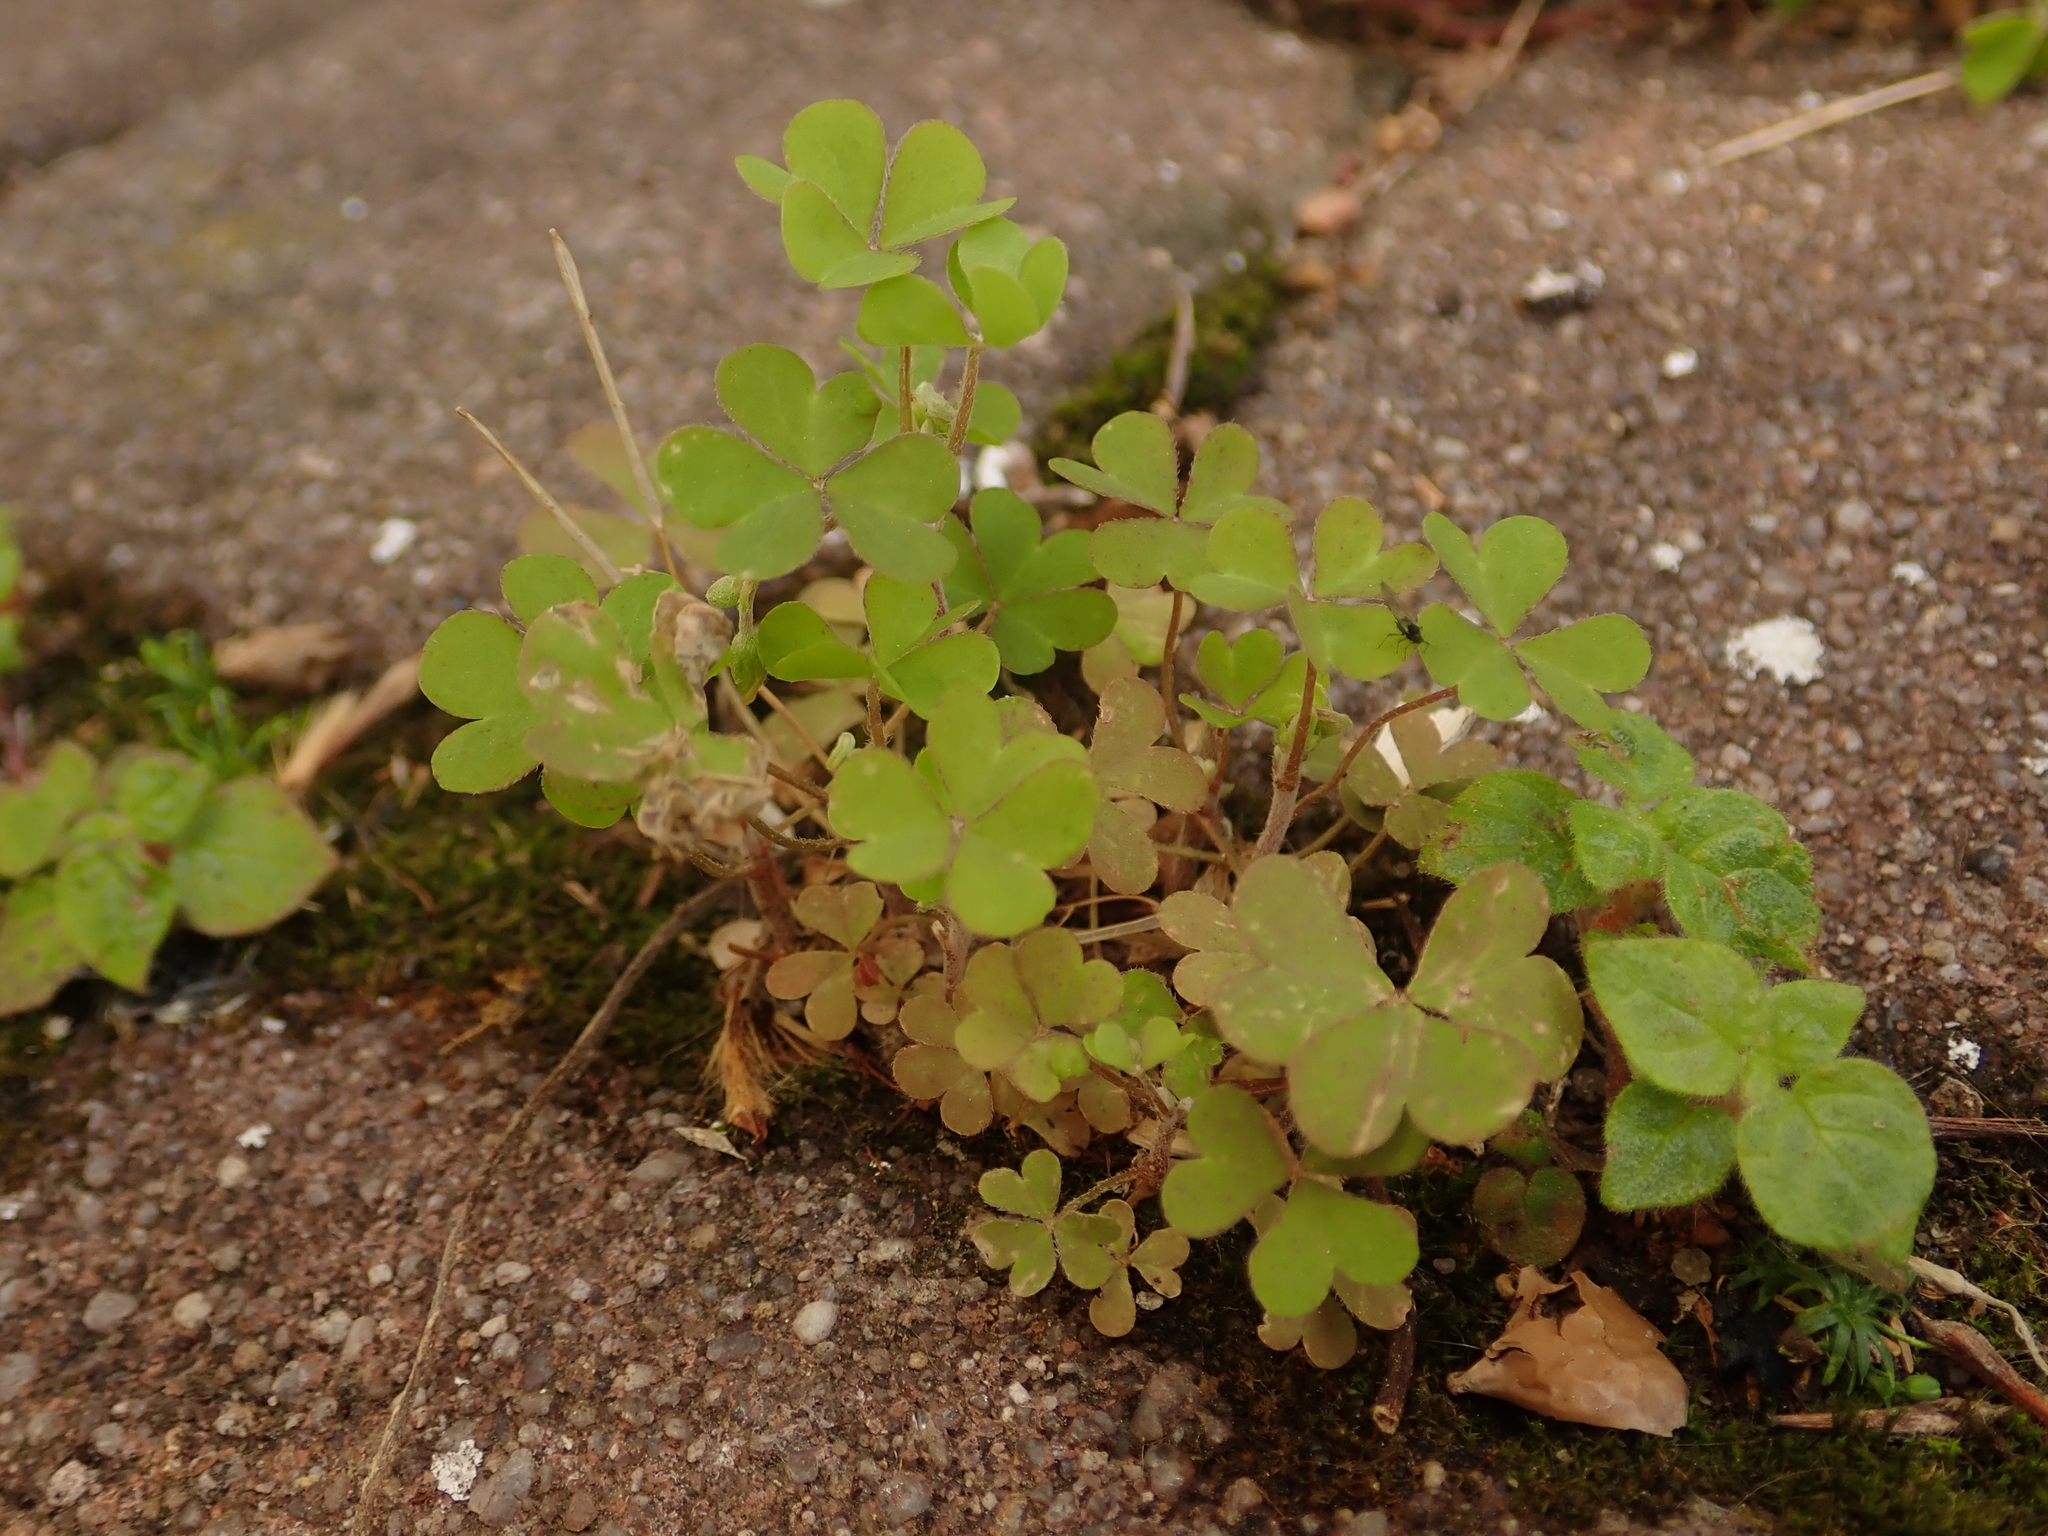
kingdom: Plantae
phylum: Tracheophyta
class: Magnoliopsida
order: Oxalidales
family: Oxalidaceae
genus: Oxalis
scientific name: Oxalis corniculata
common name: Procumbent yellow-sorrel
